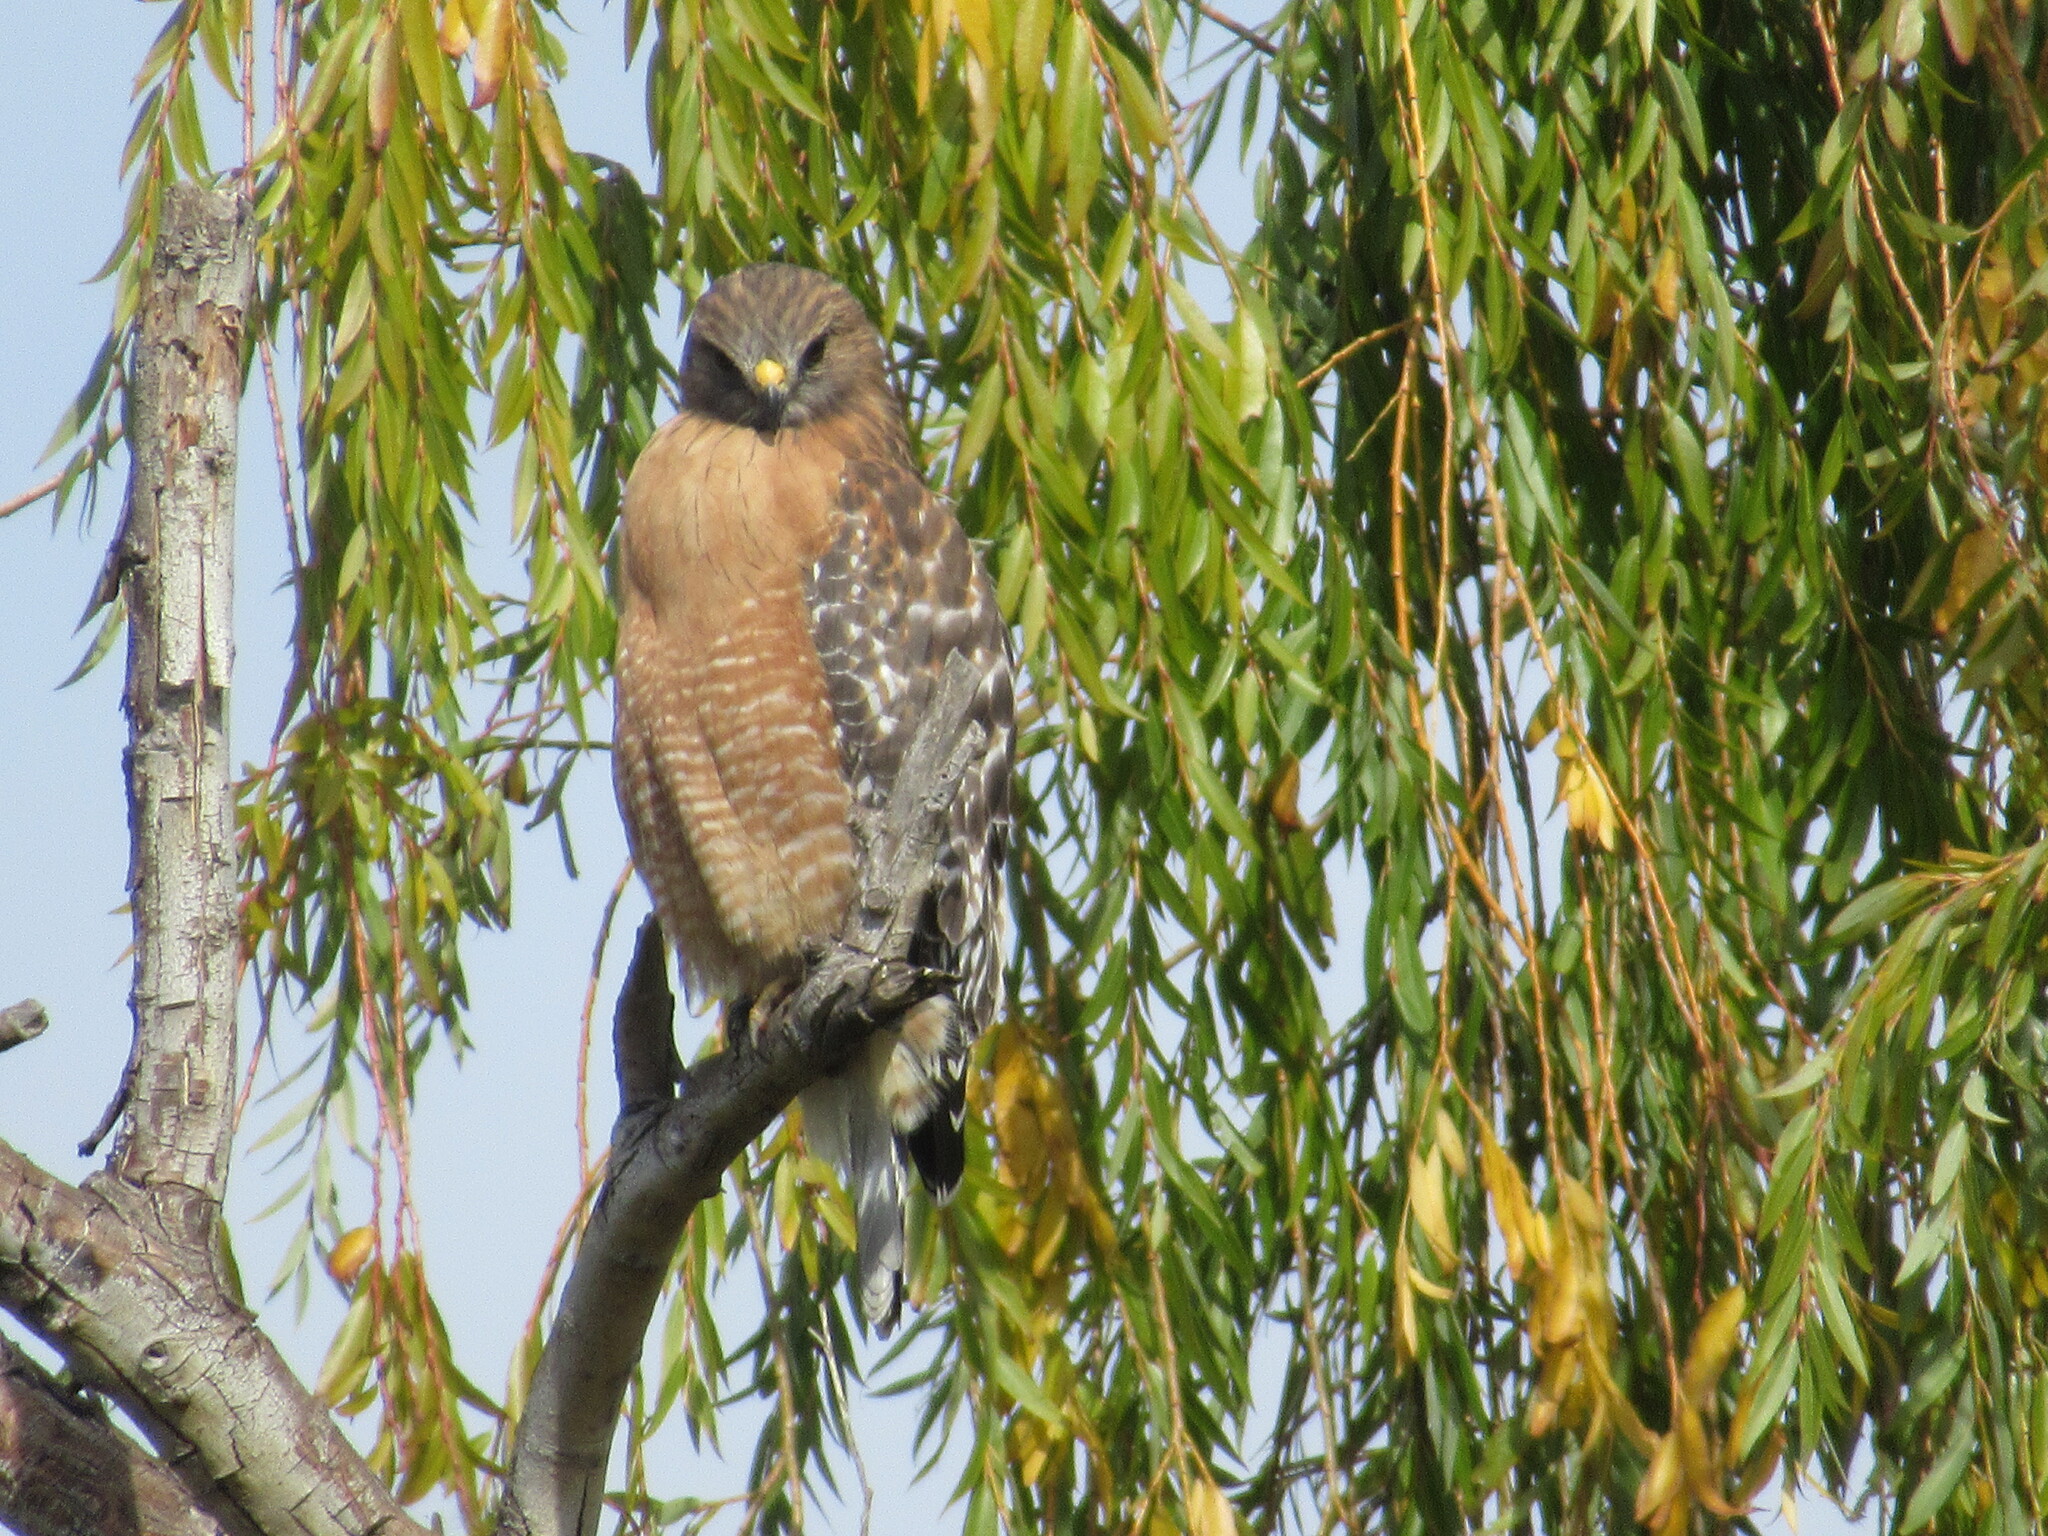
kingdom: Animalia
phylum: Chordata
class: Aves
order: Accipitriformes
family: Accipitridae
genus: Buteo
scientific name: Buteo lineatus
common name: Red-shouldered hawk
